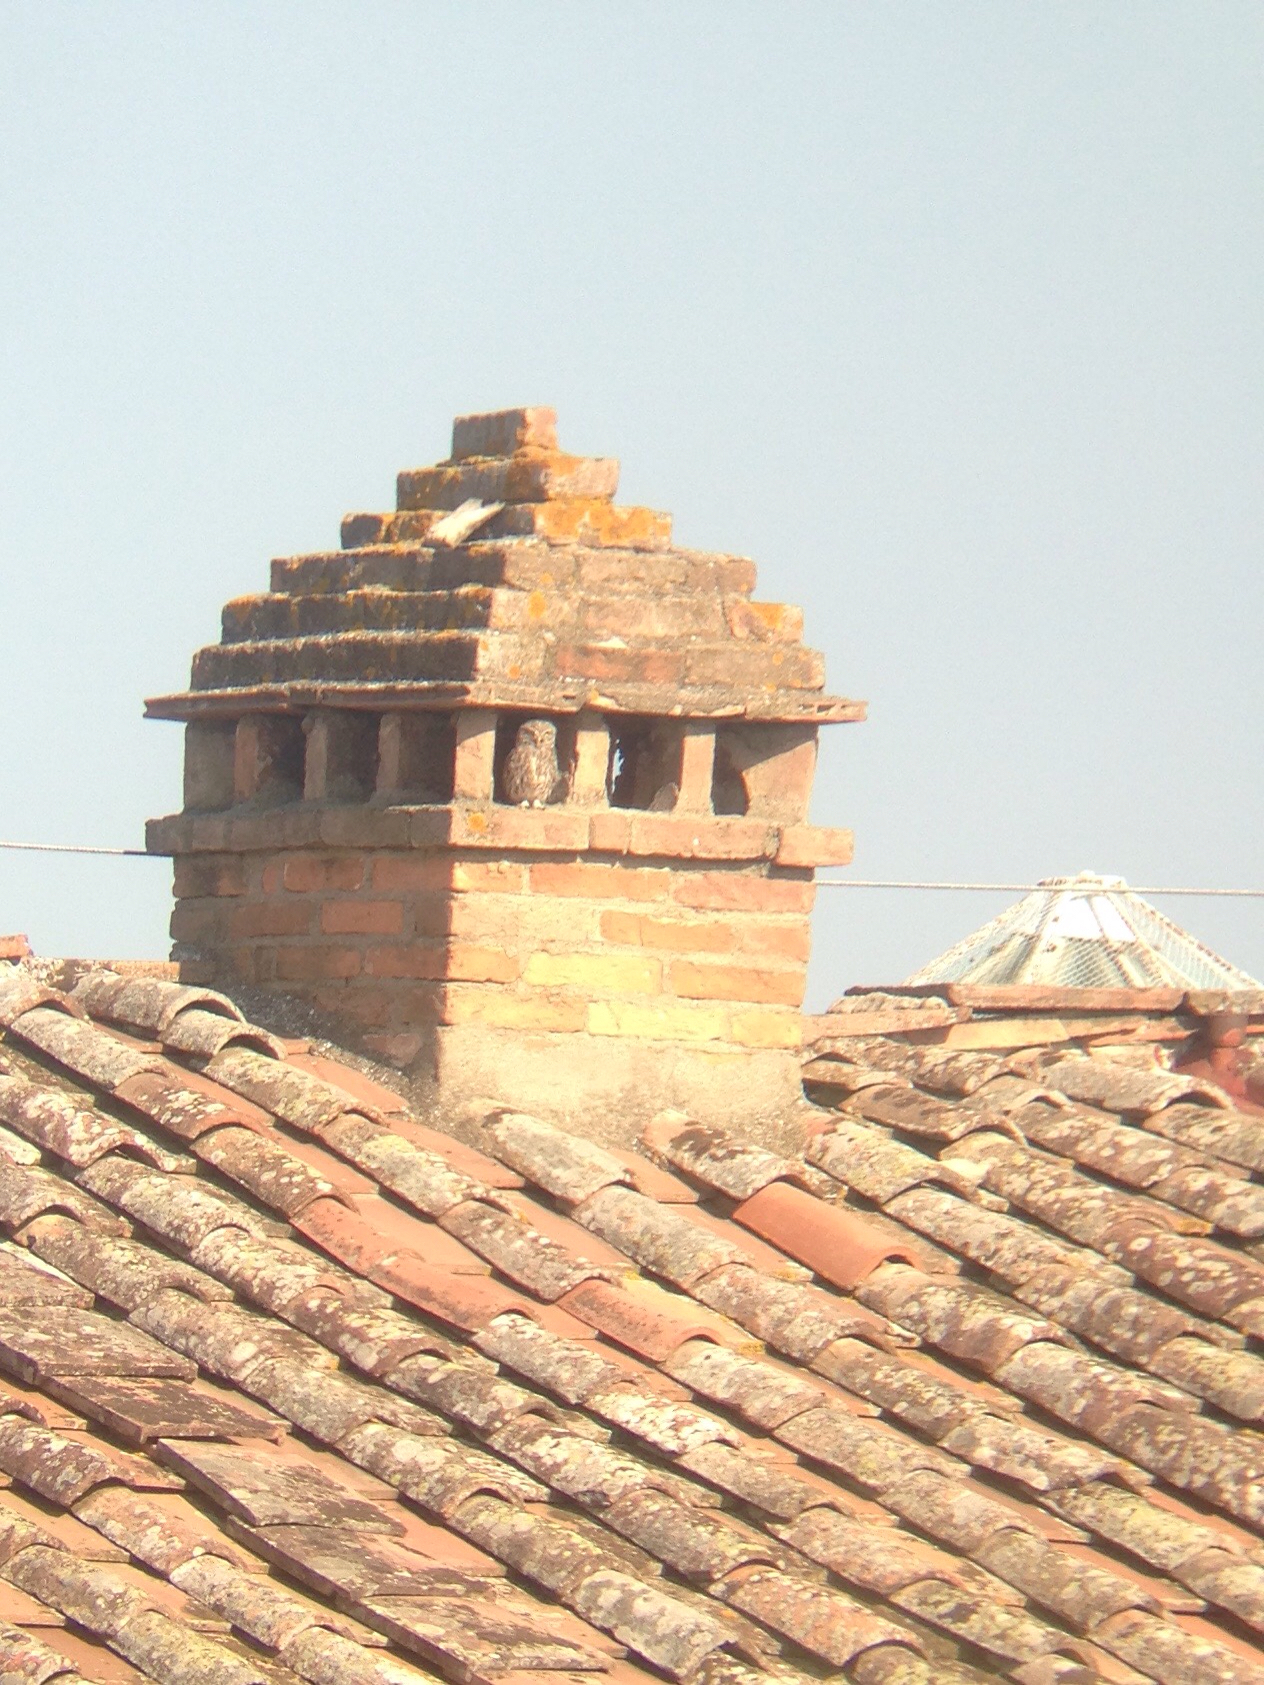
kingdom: Animalia
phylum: Chordata
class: Aves
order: Strigiformes
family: Strigidae
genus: Athene
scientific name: Athene noctua
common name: Little owl
